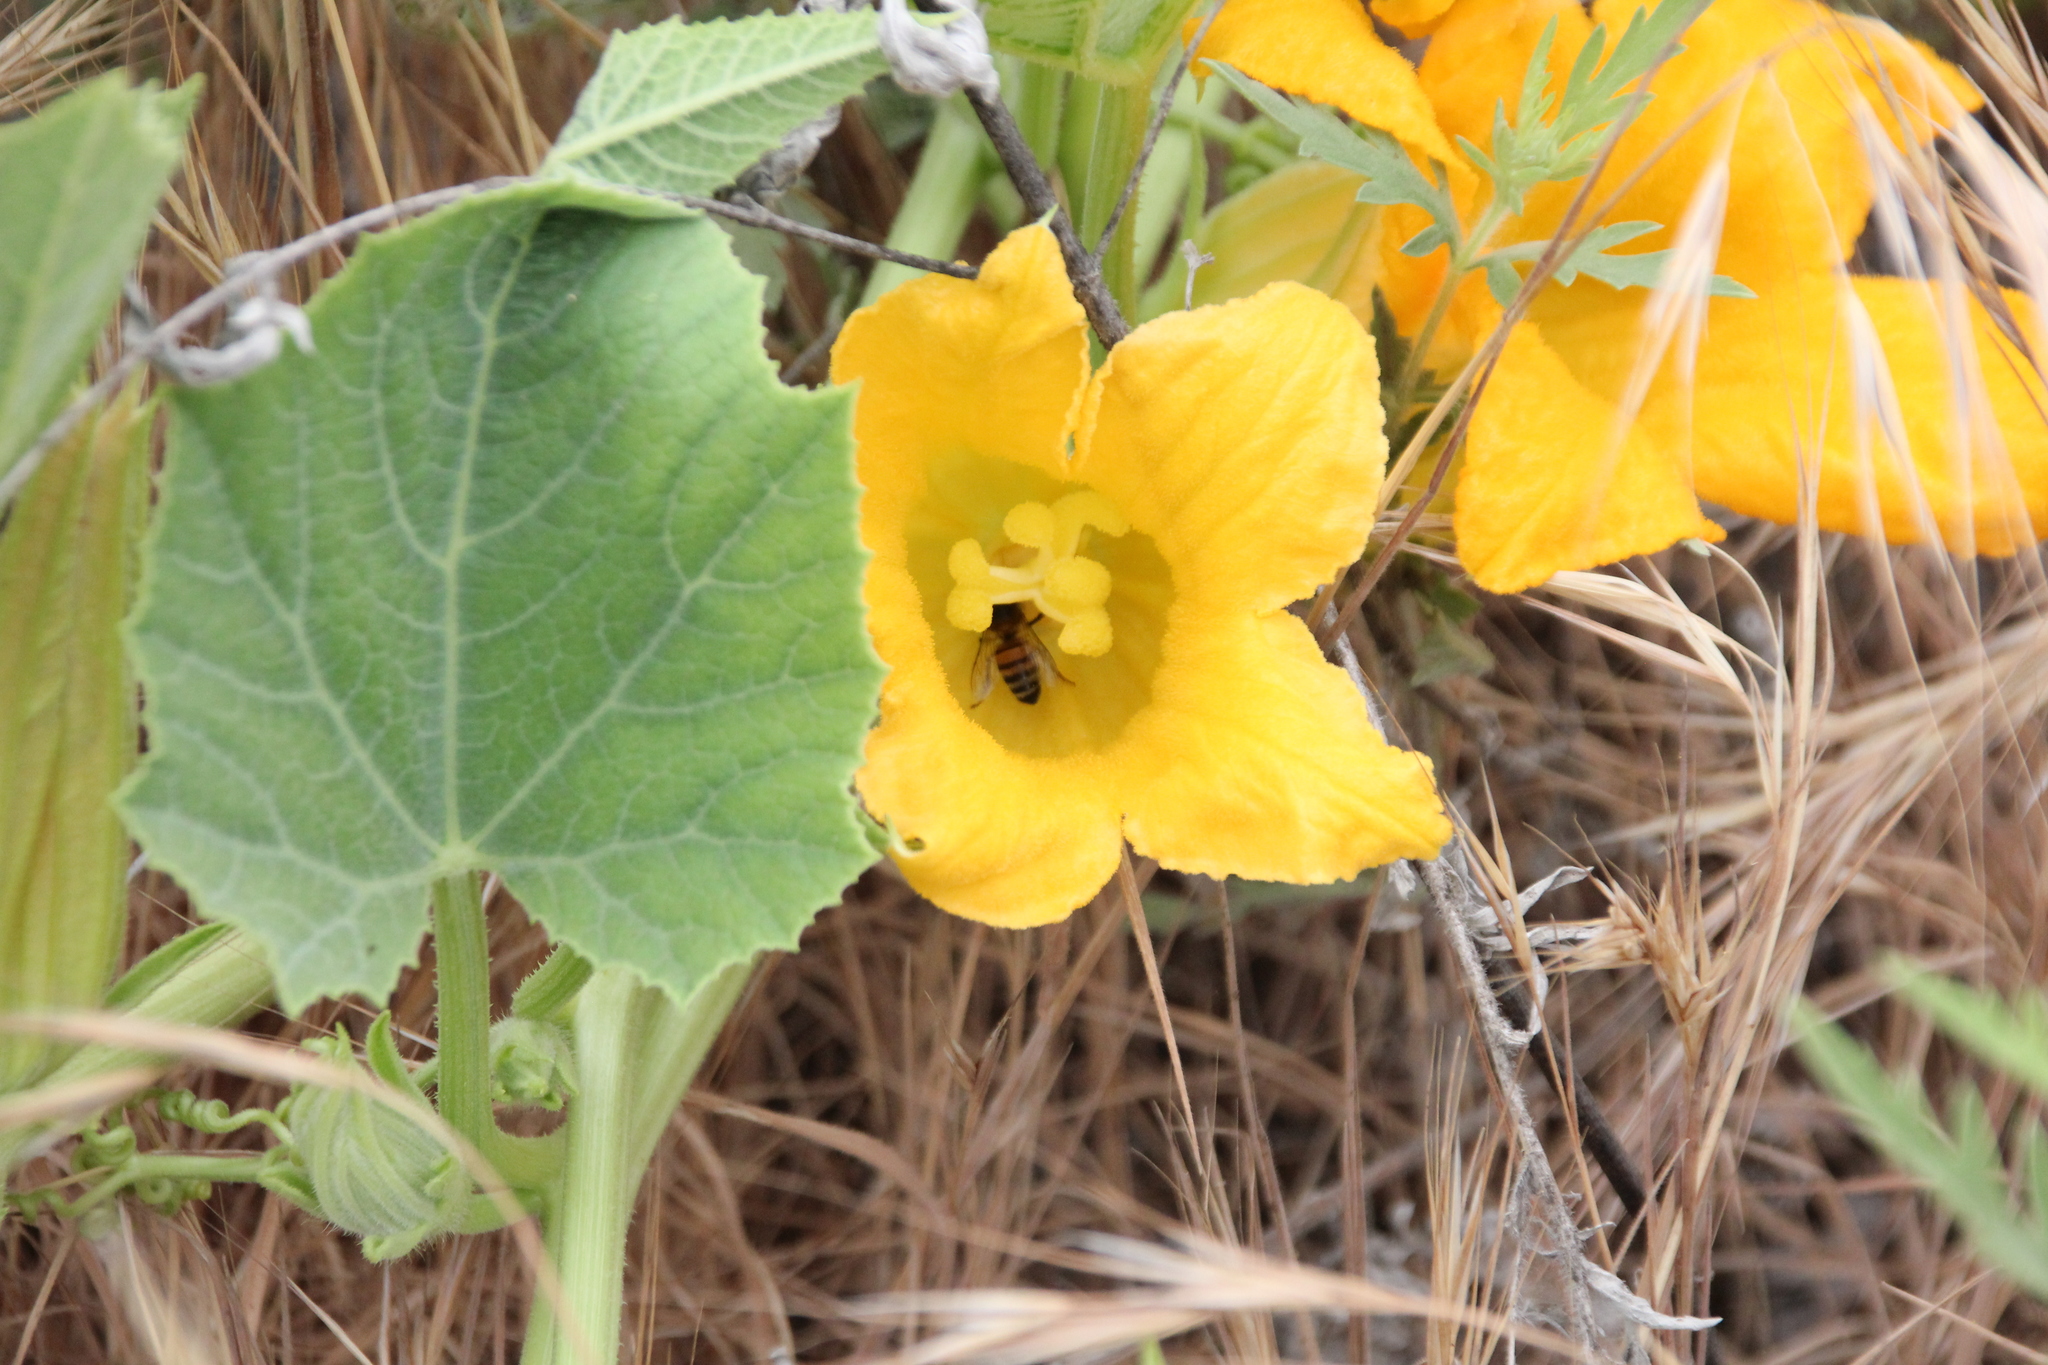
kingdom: Plantae
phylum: Tracheophyta
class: Magnoliopsida
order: Cucurbitales
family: Cucurbitaceae
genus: Cucurbita
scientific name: Cucurbita foetidissima
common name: Buffalo gourd
